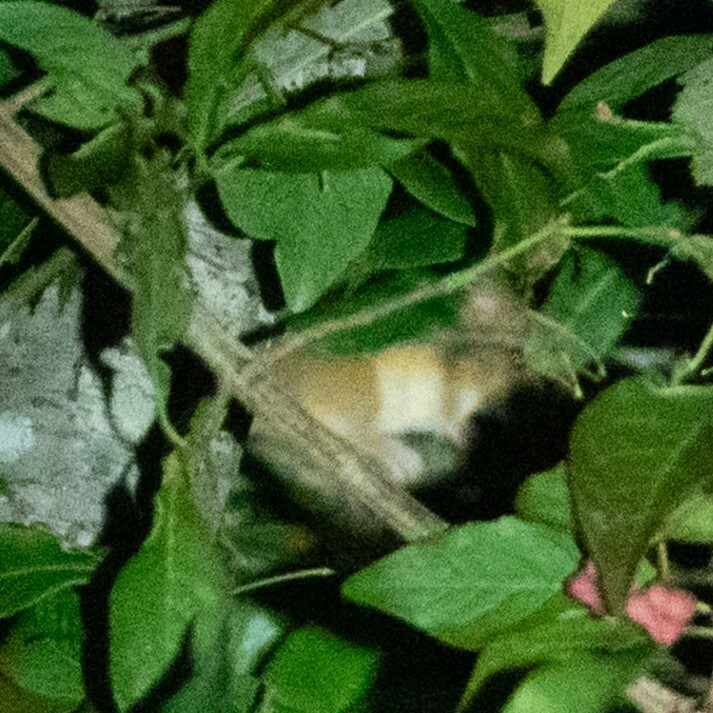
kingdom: Animalia
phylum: Chordata
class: Mammalia
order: Rodentia
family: Gliridae
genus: Muscardinus
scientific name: Muscardinus avellanarius
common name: Hazel dormouse
